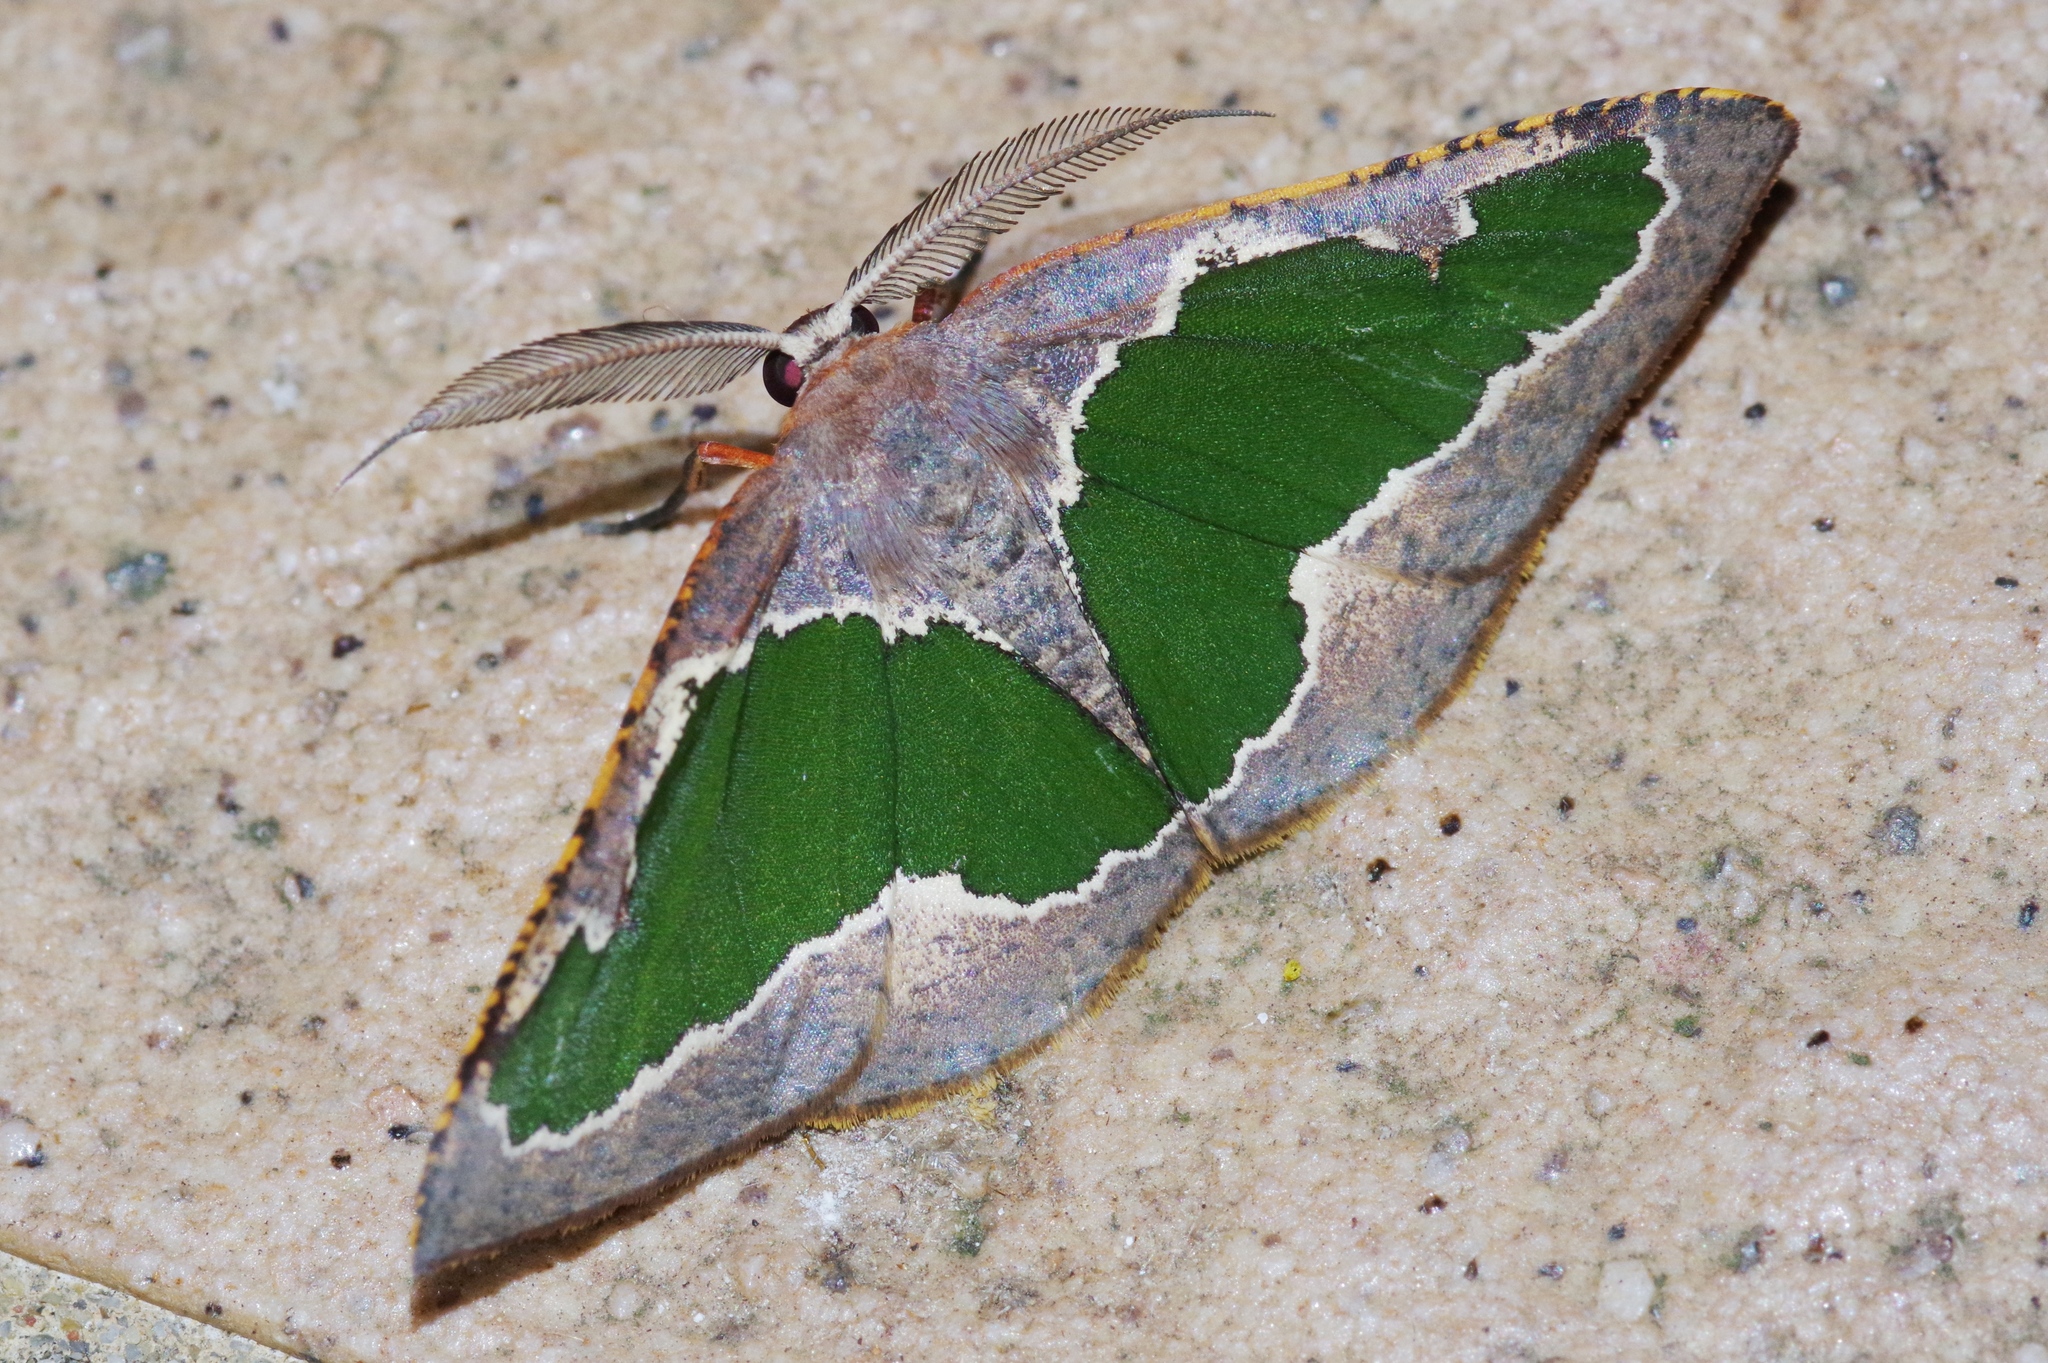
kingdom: Animalia
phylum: Arthropoda
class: Insecta
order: Lepidoptera
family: Geometridae
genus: Celenna
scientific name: Celenna festivaria
